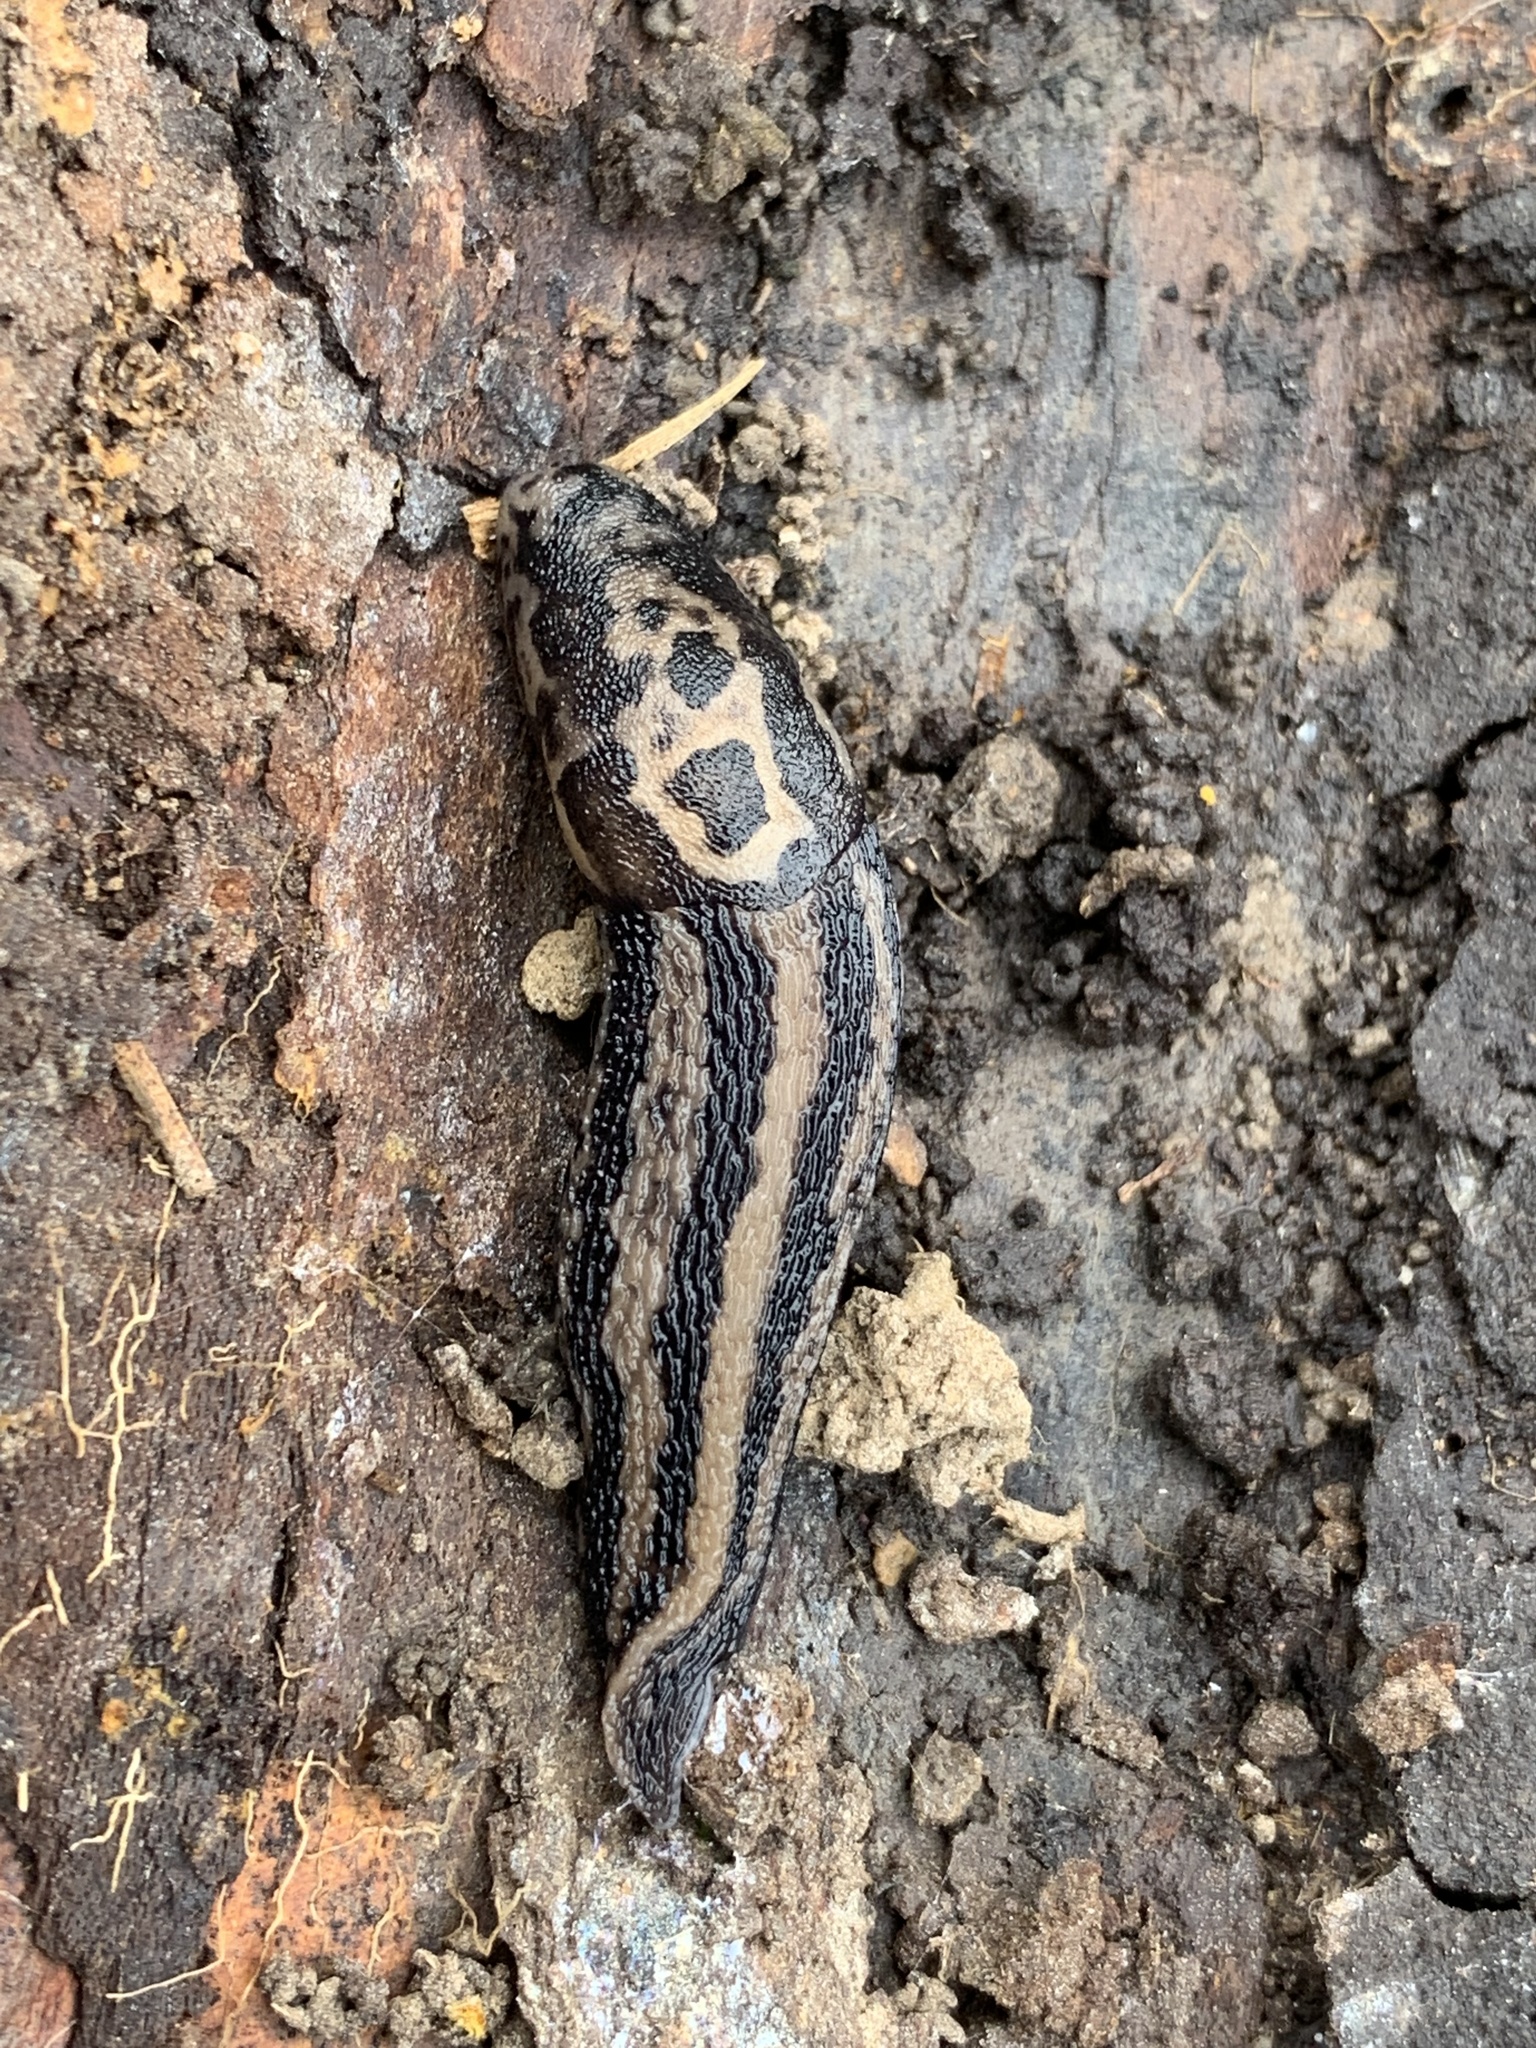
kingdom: Animalia
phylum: Mollusca
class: Gastropoda
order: Stylommatophora
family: Limacidae
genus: Limax
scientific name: Limax maximus
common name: Great grey slug
